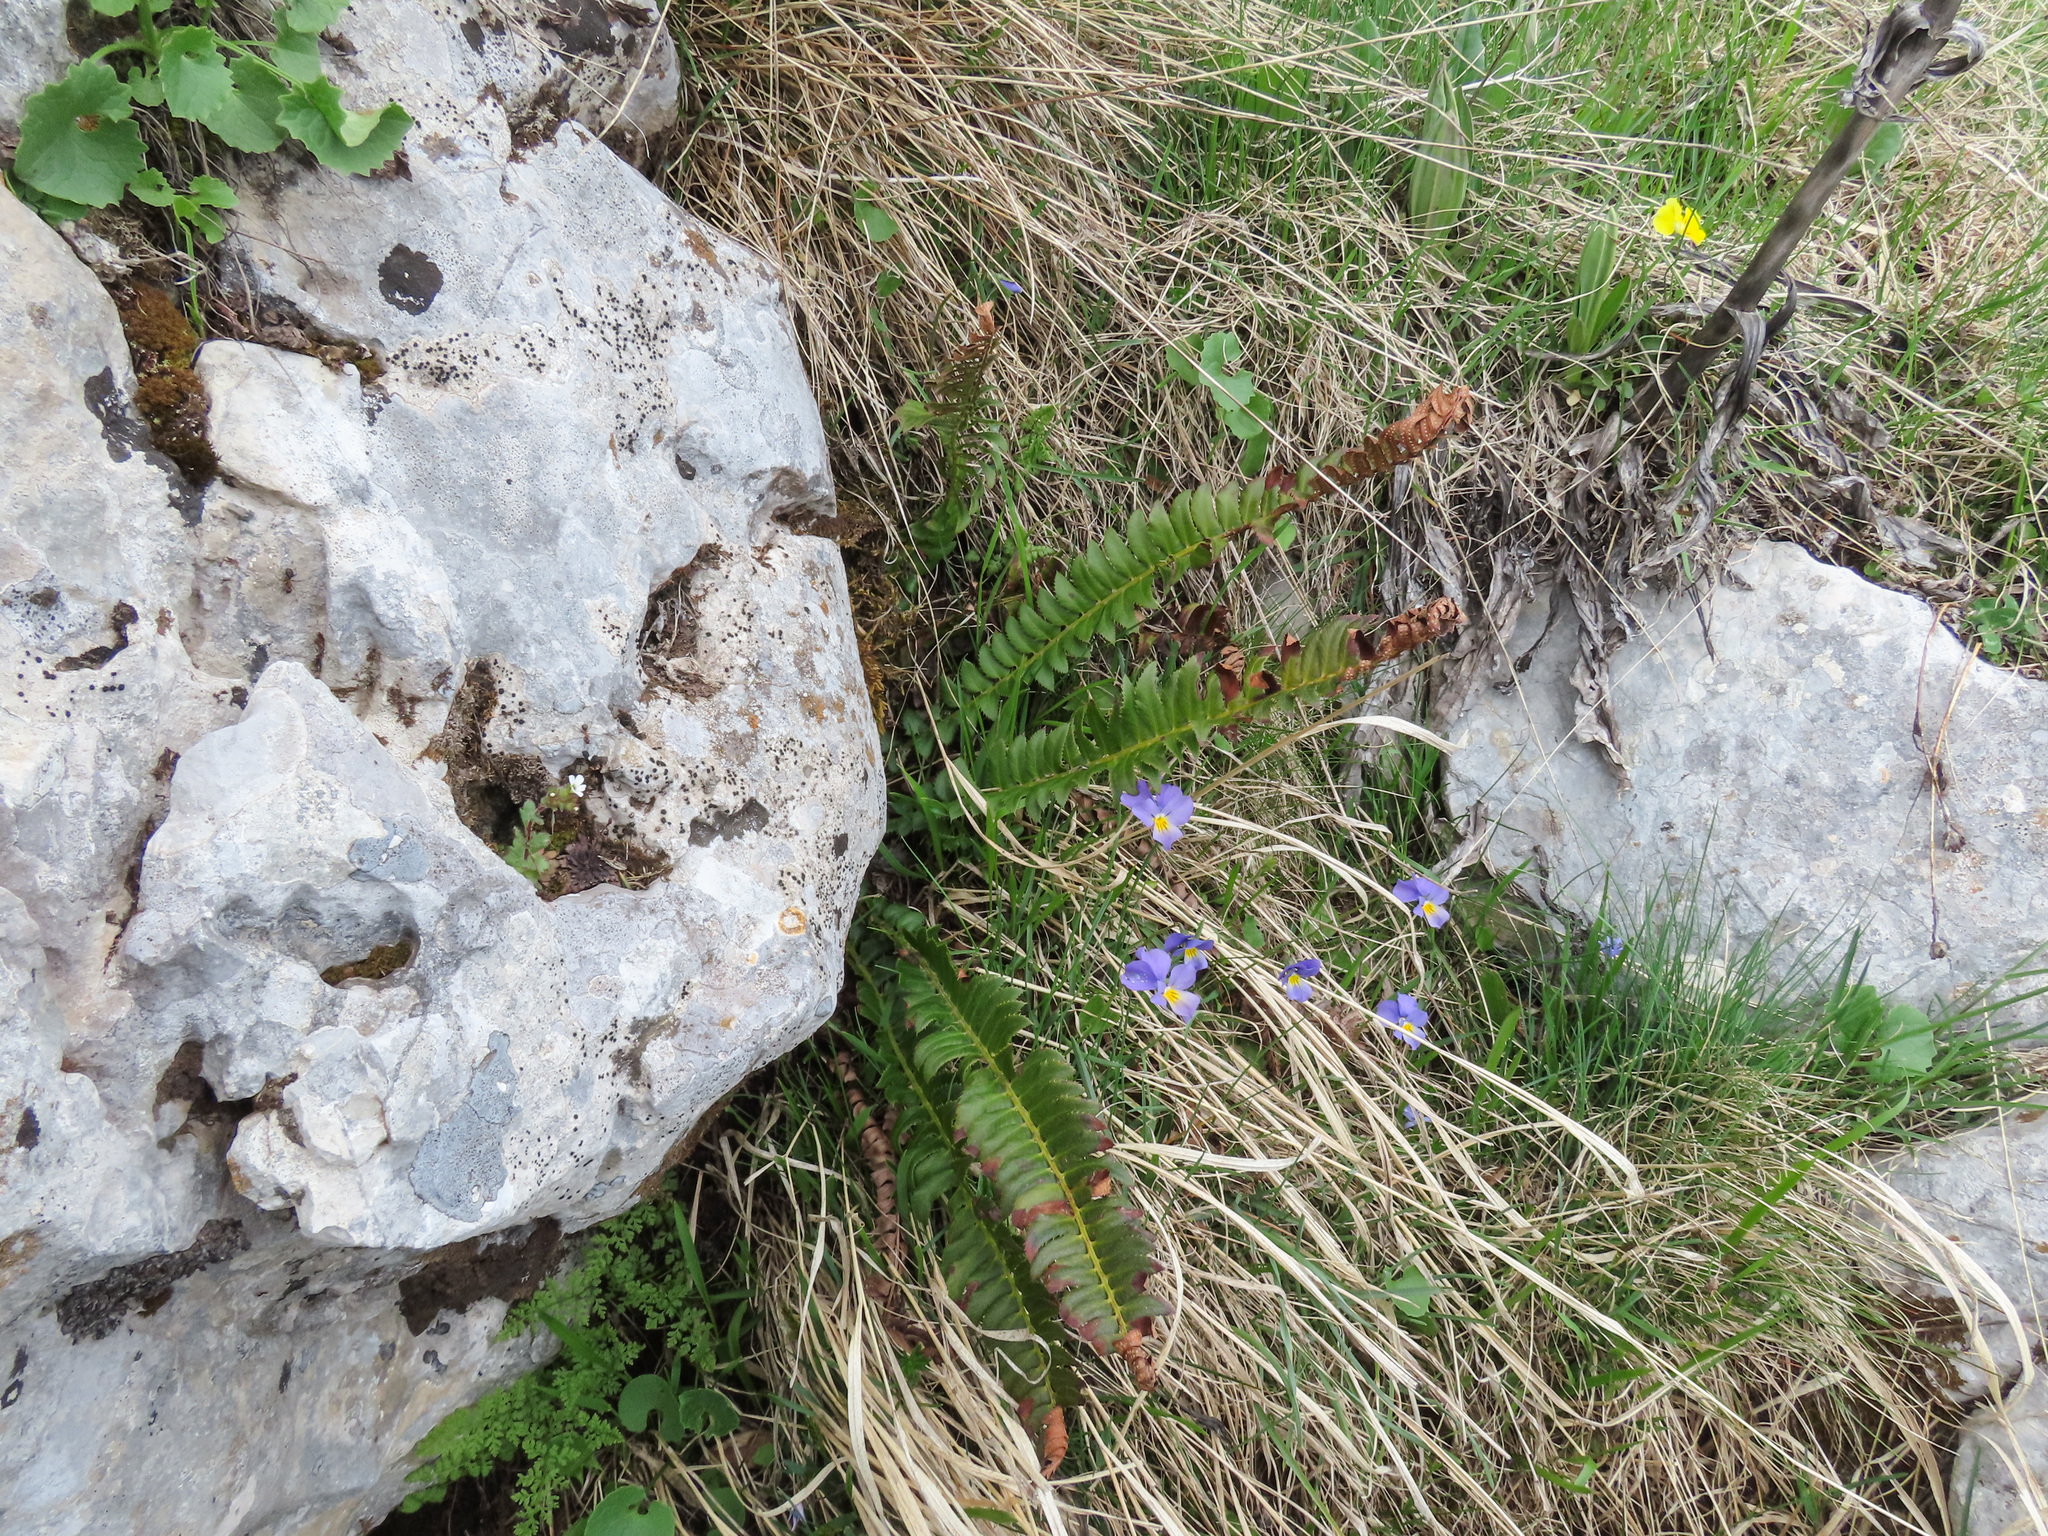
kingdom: Plantae
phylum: Tracheophyta
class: Polypodiopsida
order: Polypodiales
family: Dryopteridaceae
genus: Polystichum
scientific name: Polystichum lonchitis
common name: Holly fern
